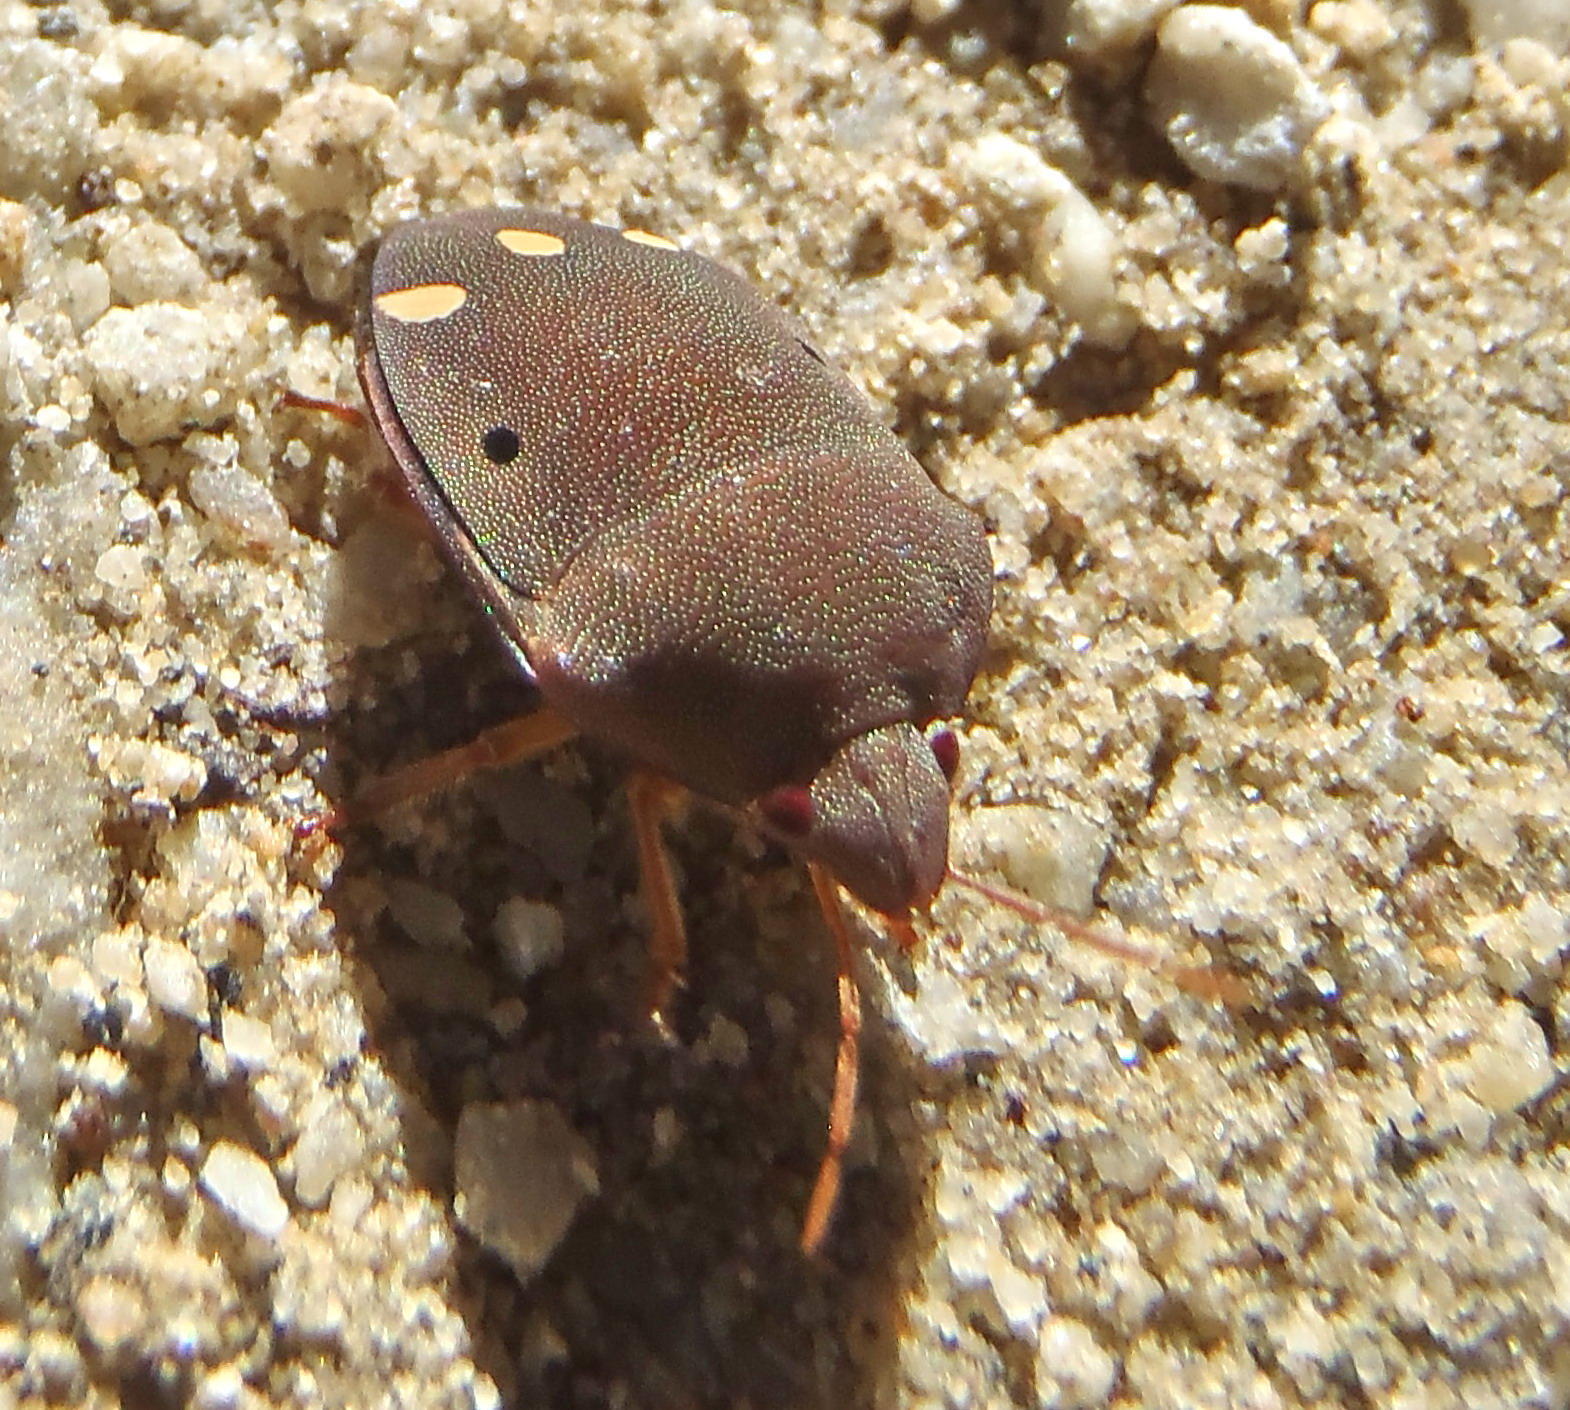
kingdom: Animalia
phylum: Arthropoda
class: Insecta
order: Hemiptera
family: Scutelleridae
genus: Solenosthedium
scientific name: Solenosthedium
